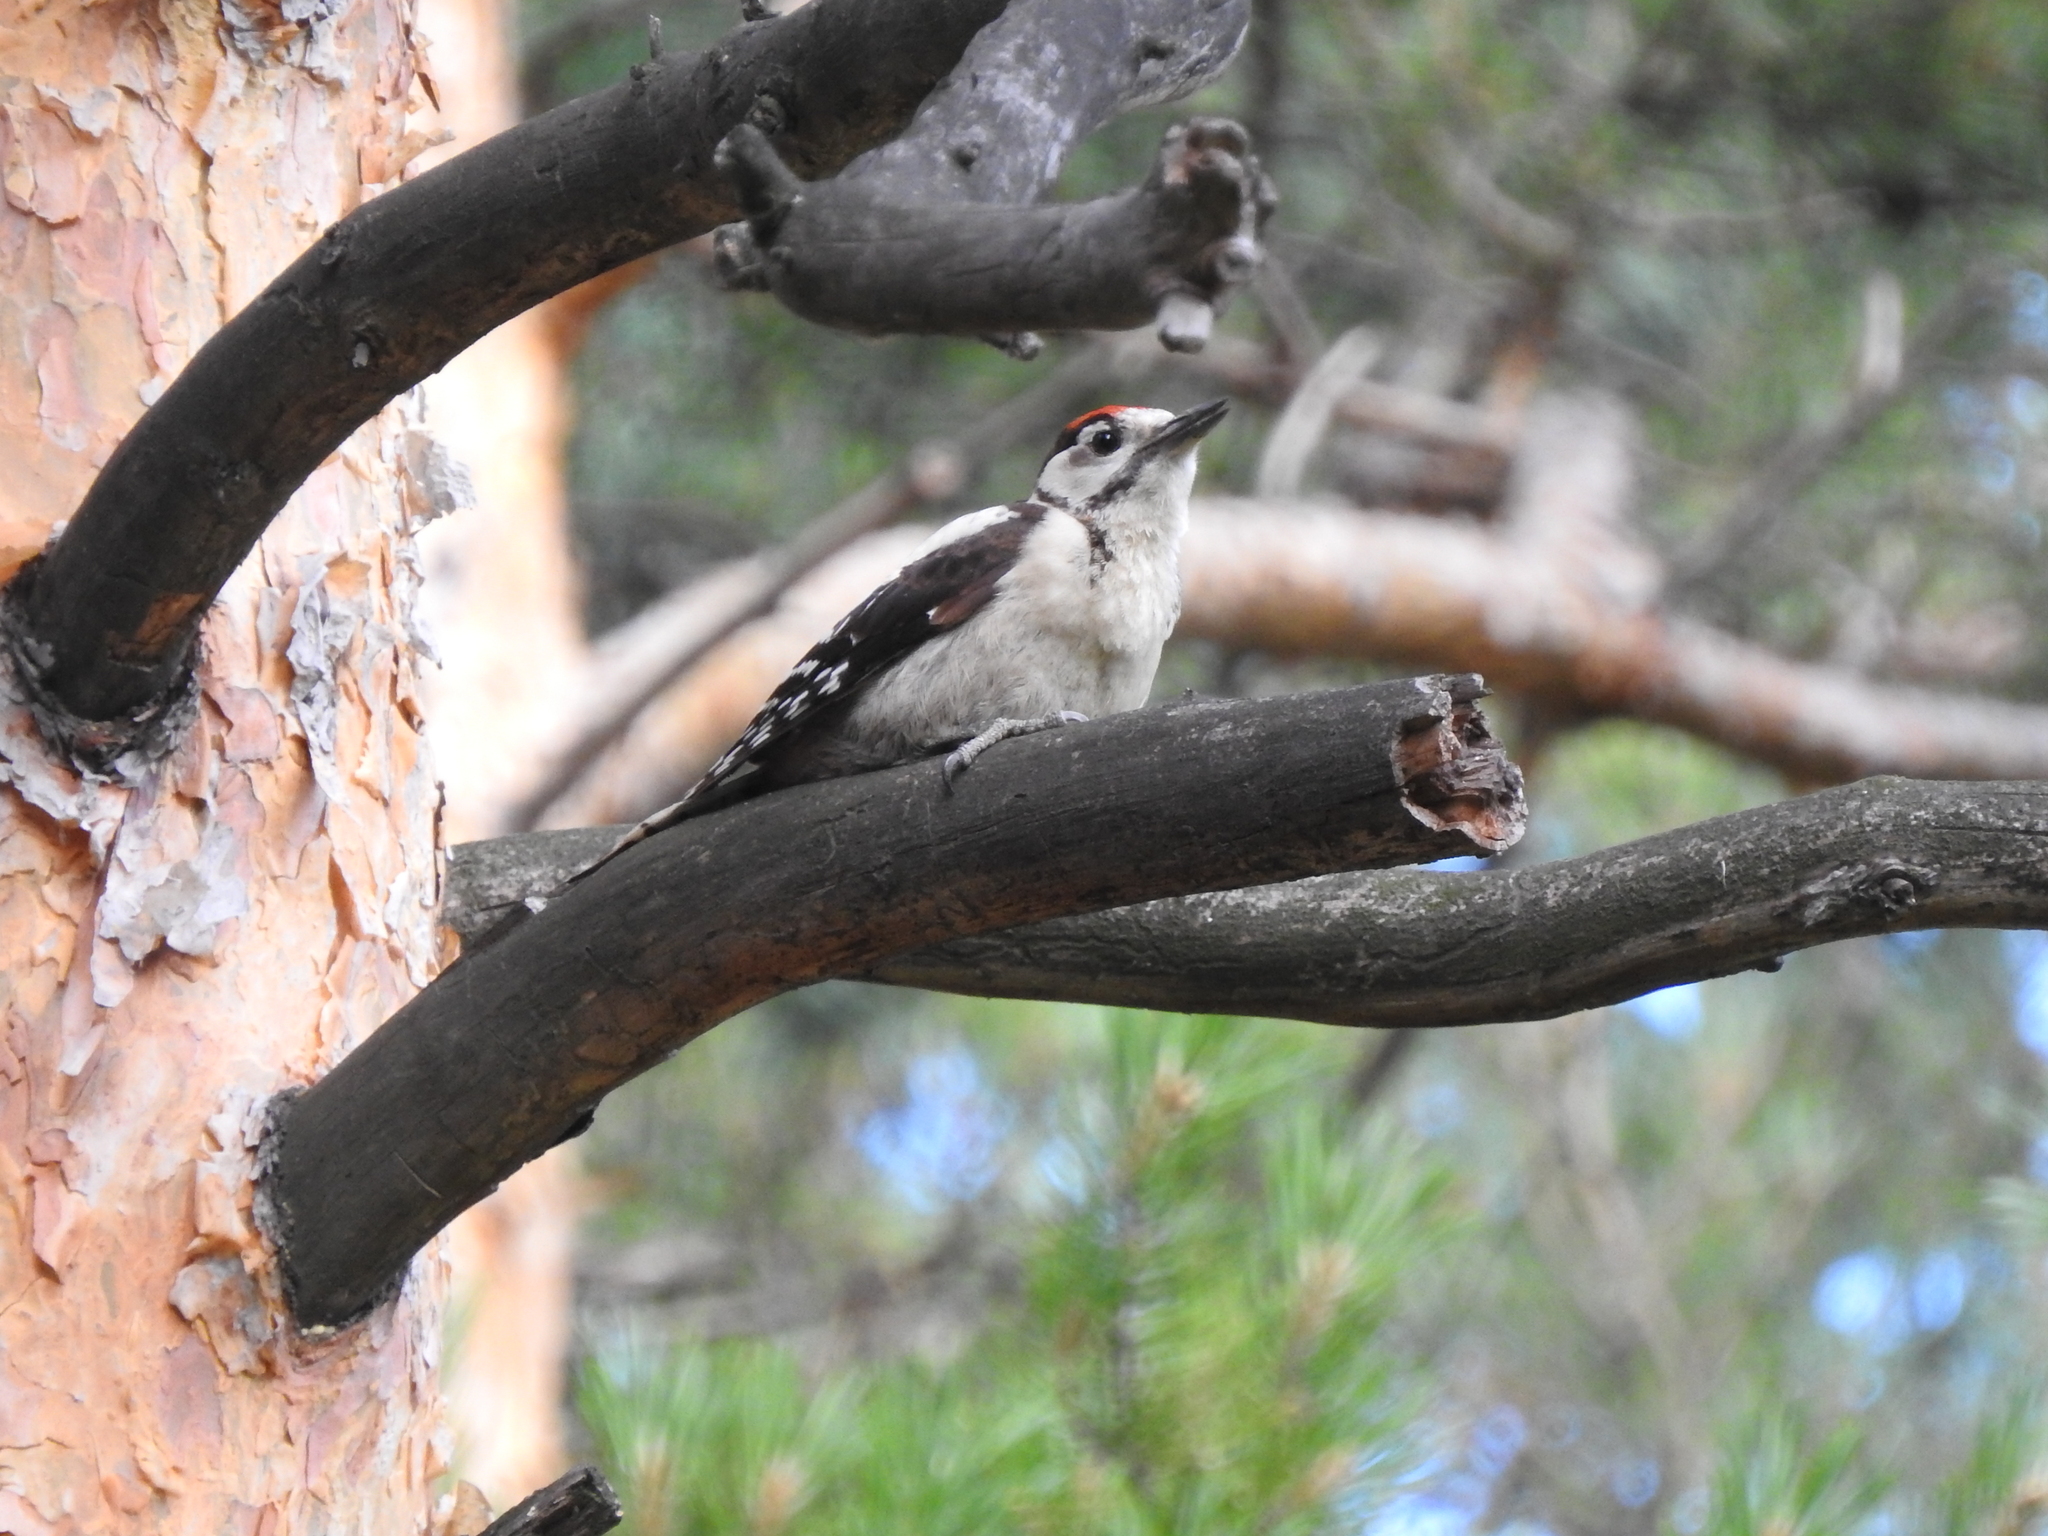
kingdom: Animalia
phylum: Chordata
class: Aves
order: Piciformes
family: Picidae
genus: Dendrocopos
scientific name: Dendrocopos major
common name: Great spotted woodpecker
